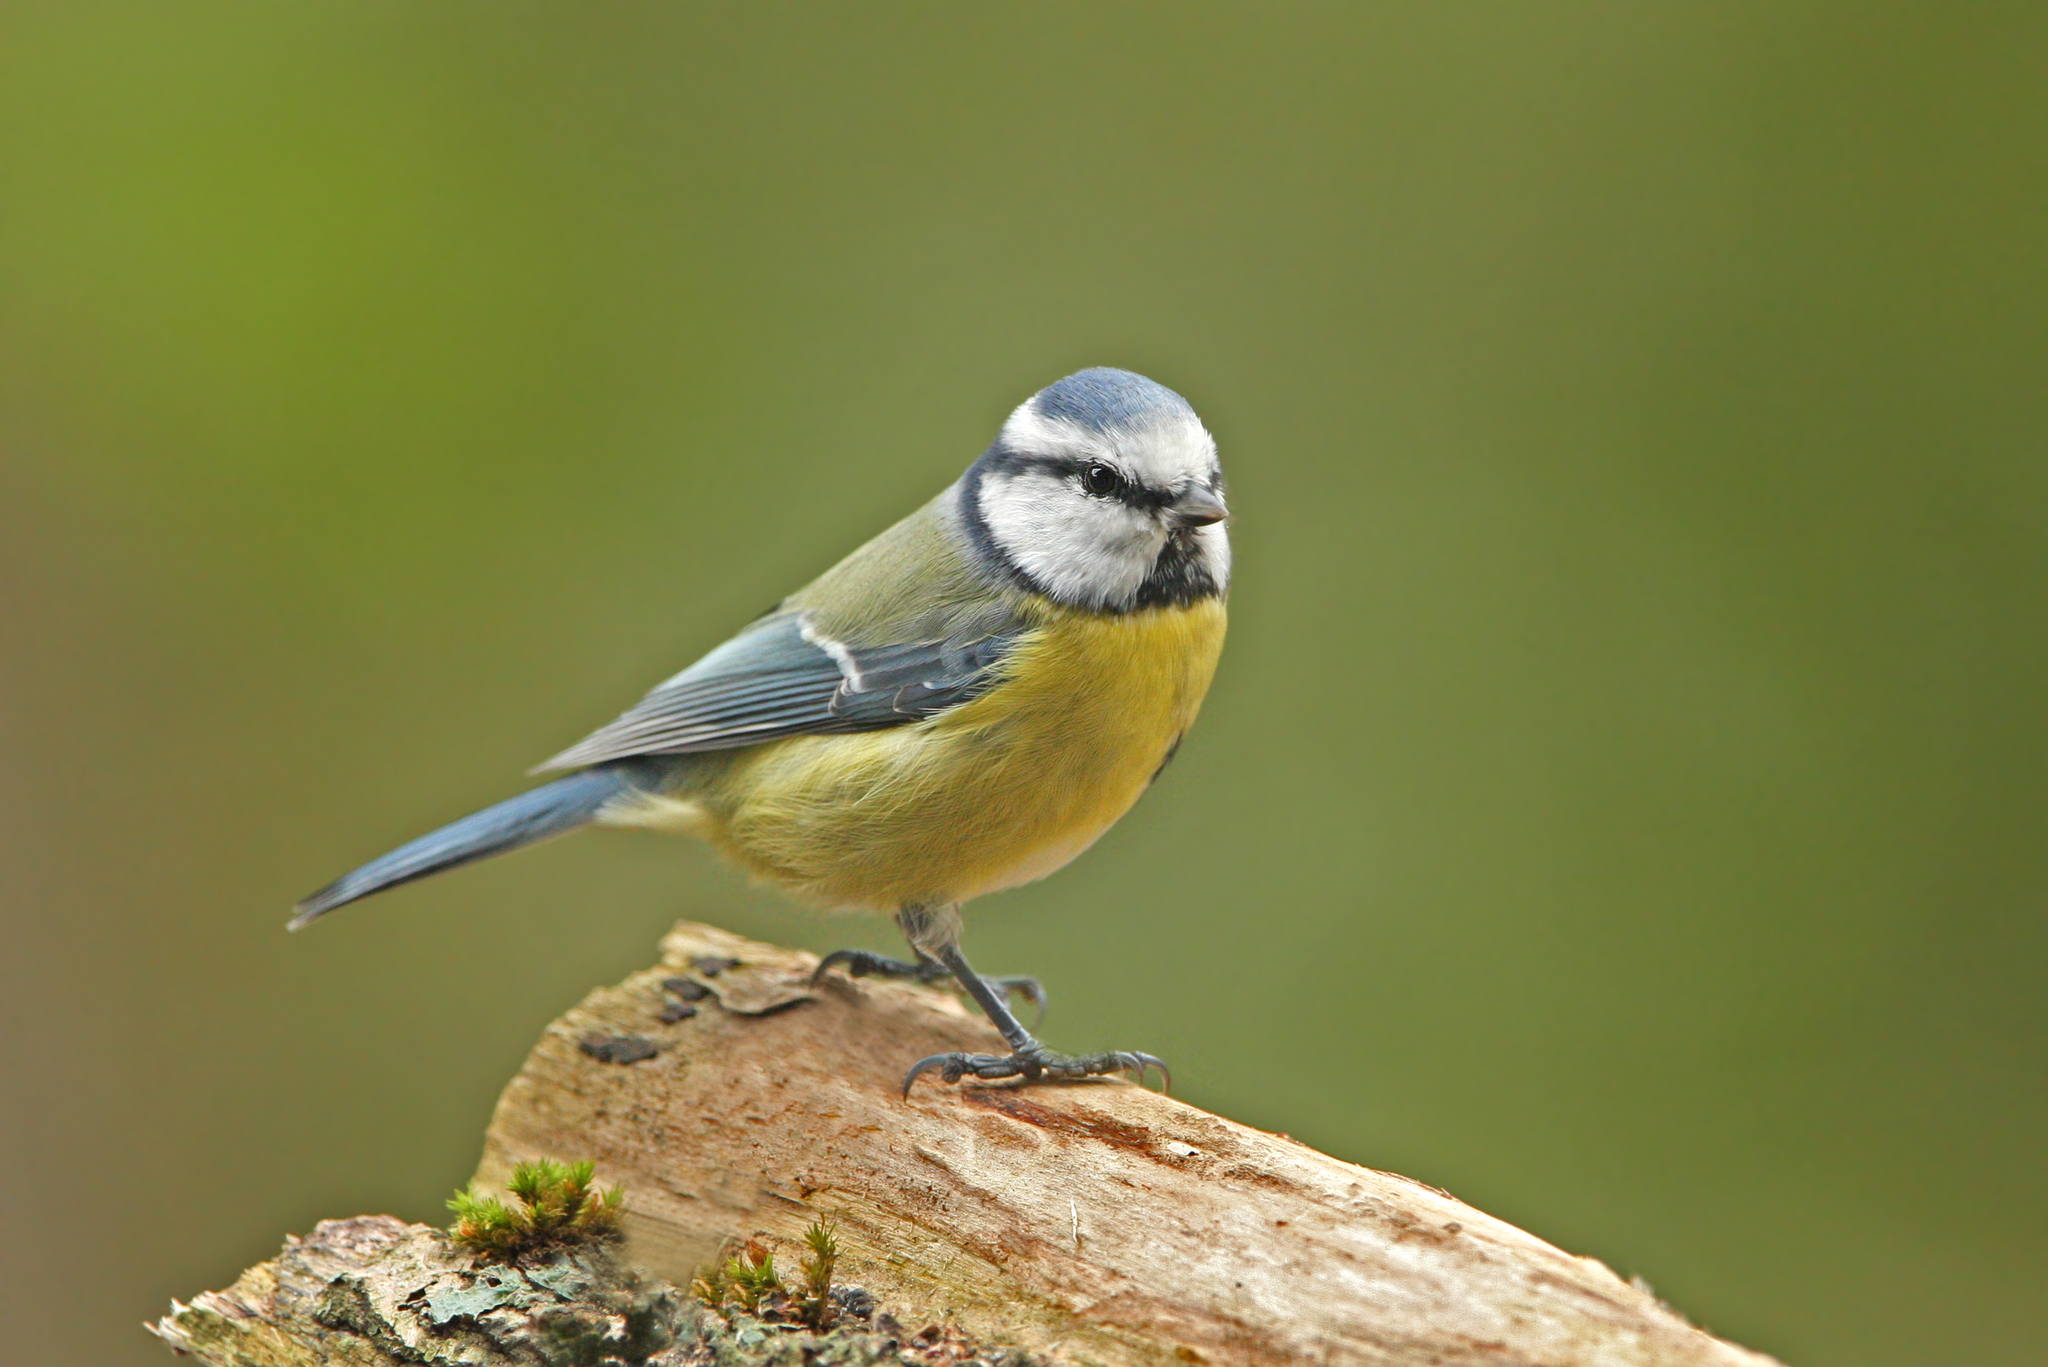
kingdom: Animalia
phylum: Chordata
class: Aves
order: Passeriformes
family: Paridae
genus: Cyanistes
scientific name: Cyanistes caeruleus
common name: Eurasian blue tit
